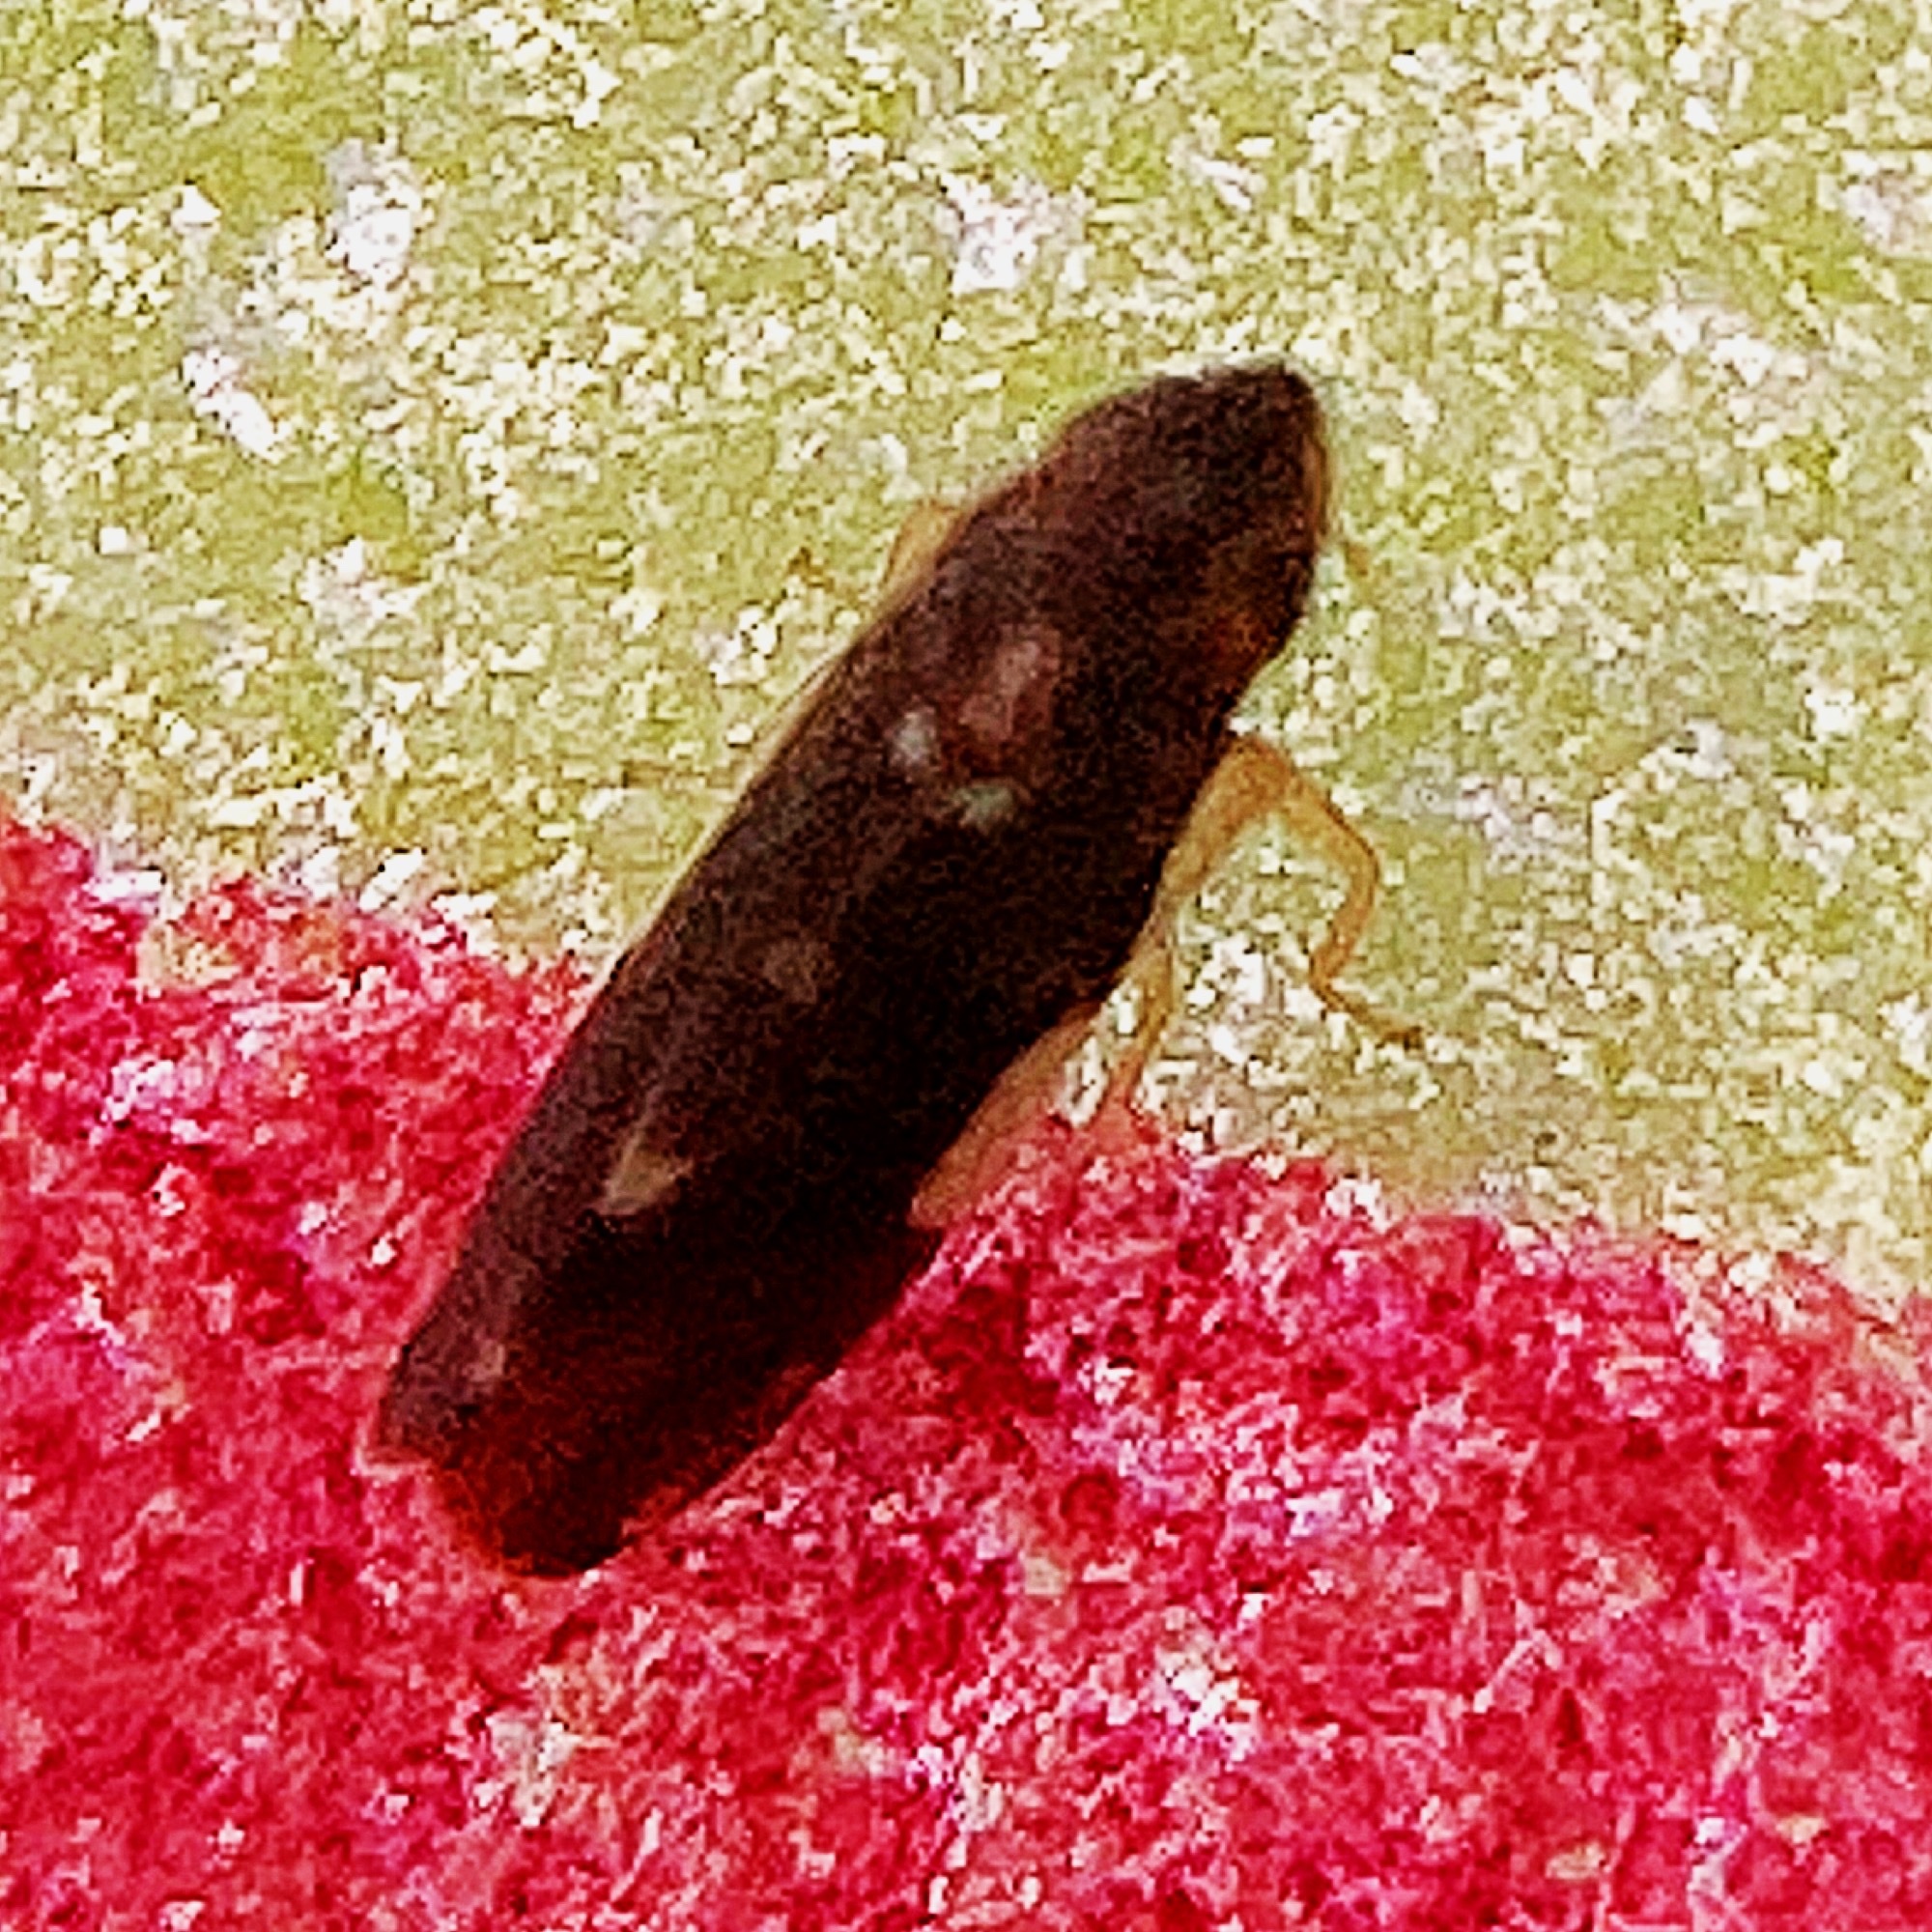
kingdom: Animalia
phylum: Arthropoda
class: Insecta
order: Hemiptera
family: Cicadellidae
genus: Erythroneura
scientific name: Erythroneura infuscata
